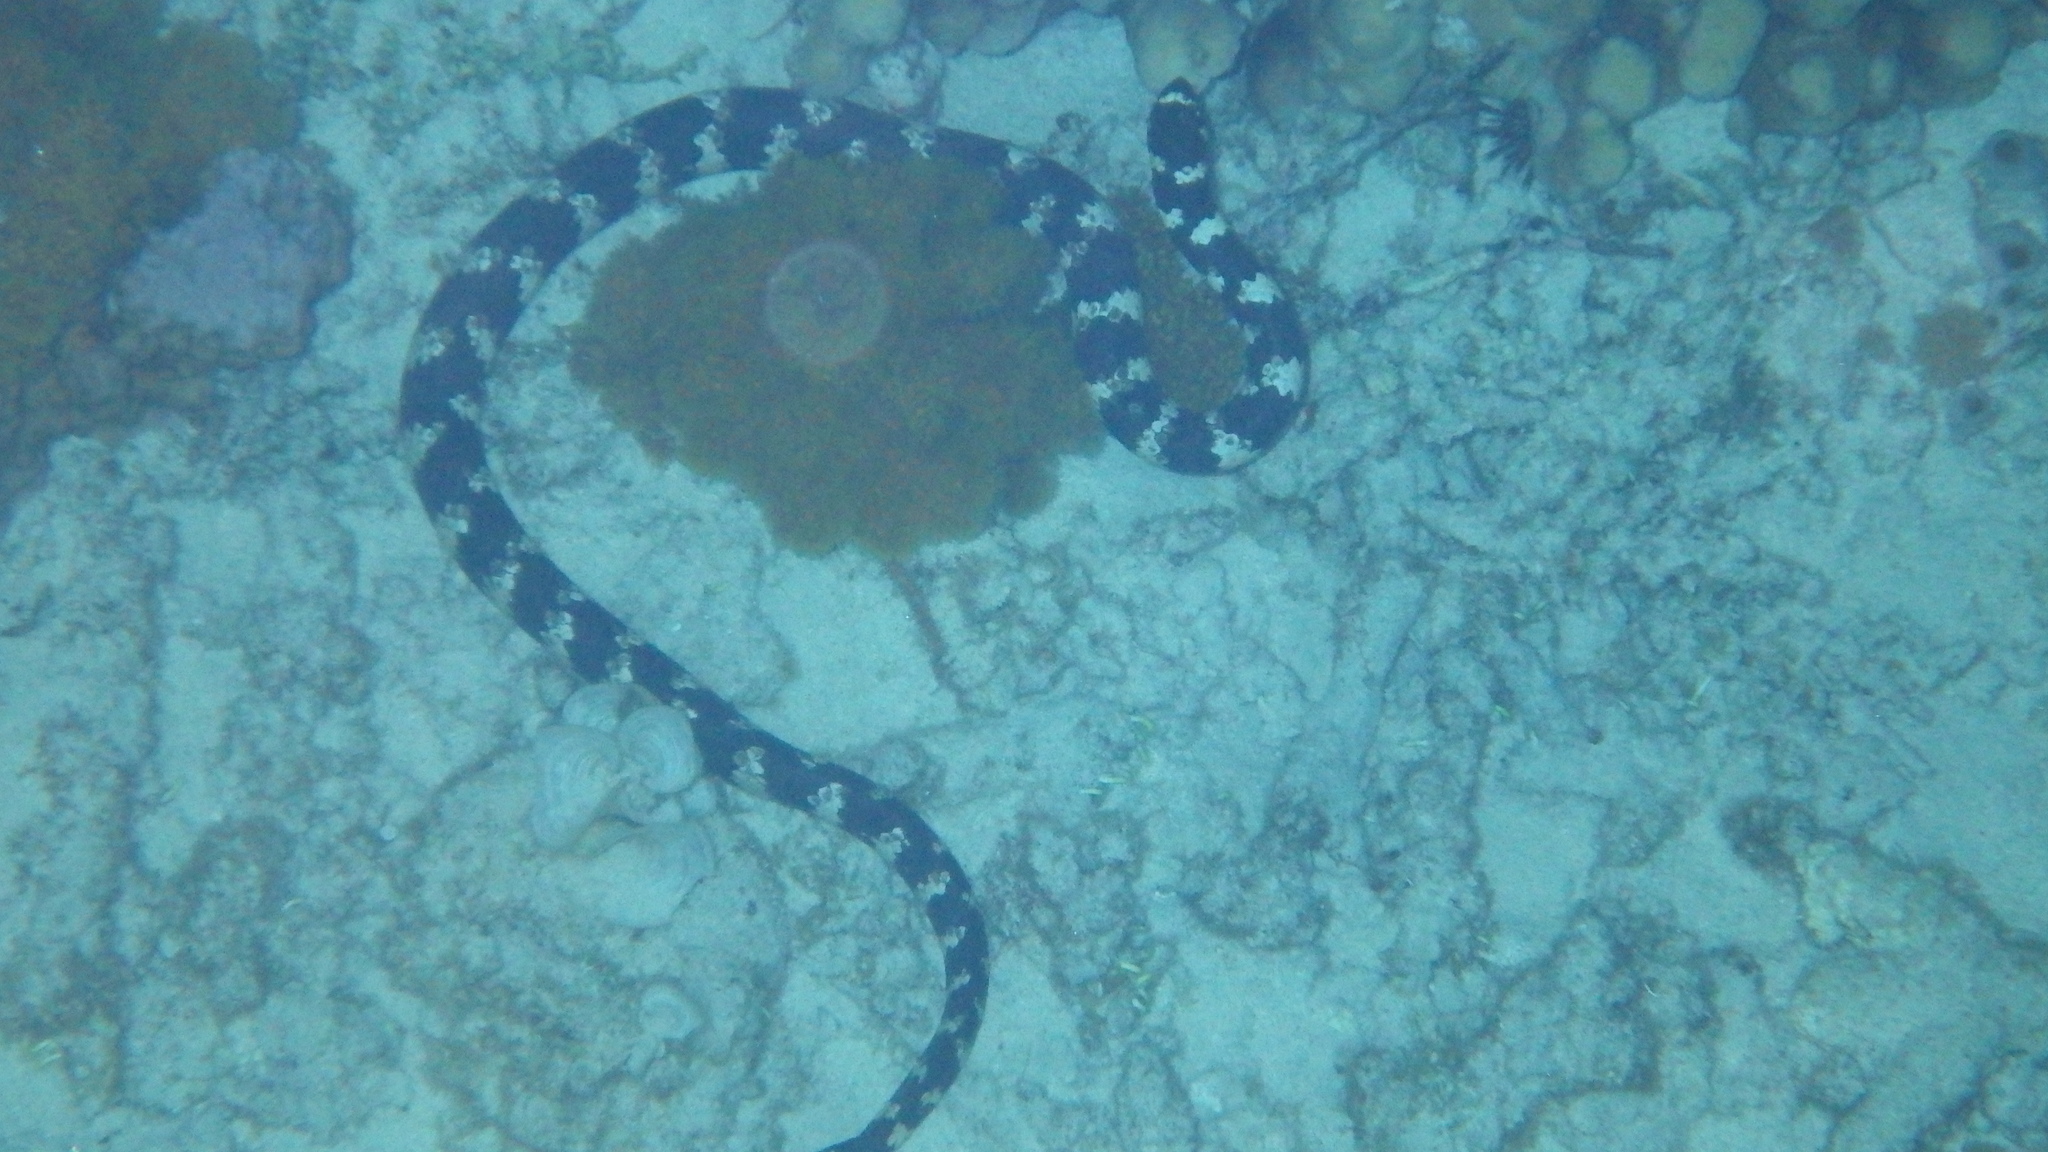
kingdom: Animalia
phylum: Chordata
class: Squamata
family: Elapidae
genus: Emydocephalus
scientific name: Emydocephalus ijimae
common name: Turtlehead sea snake
